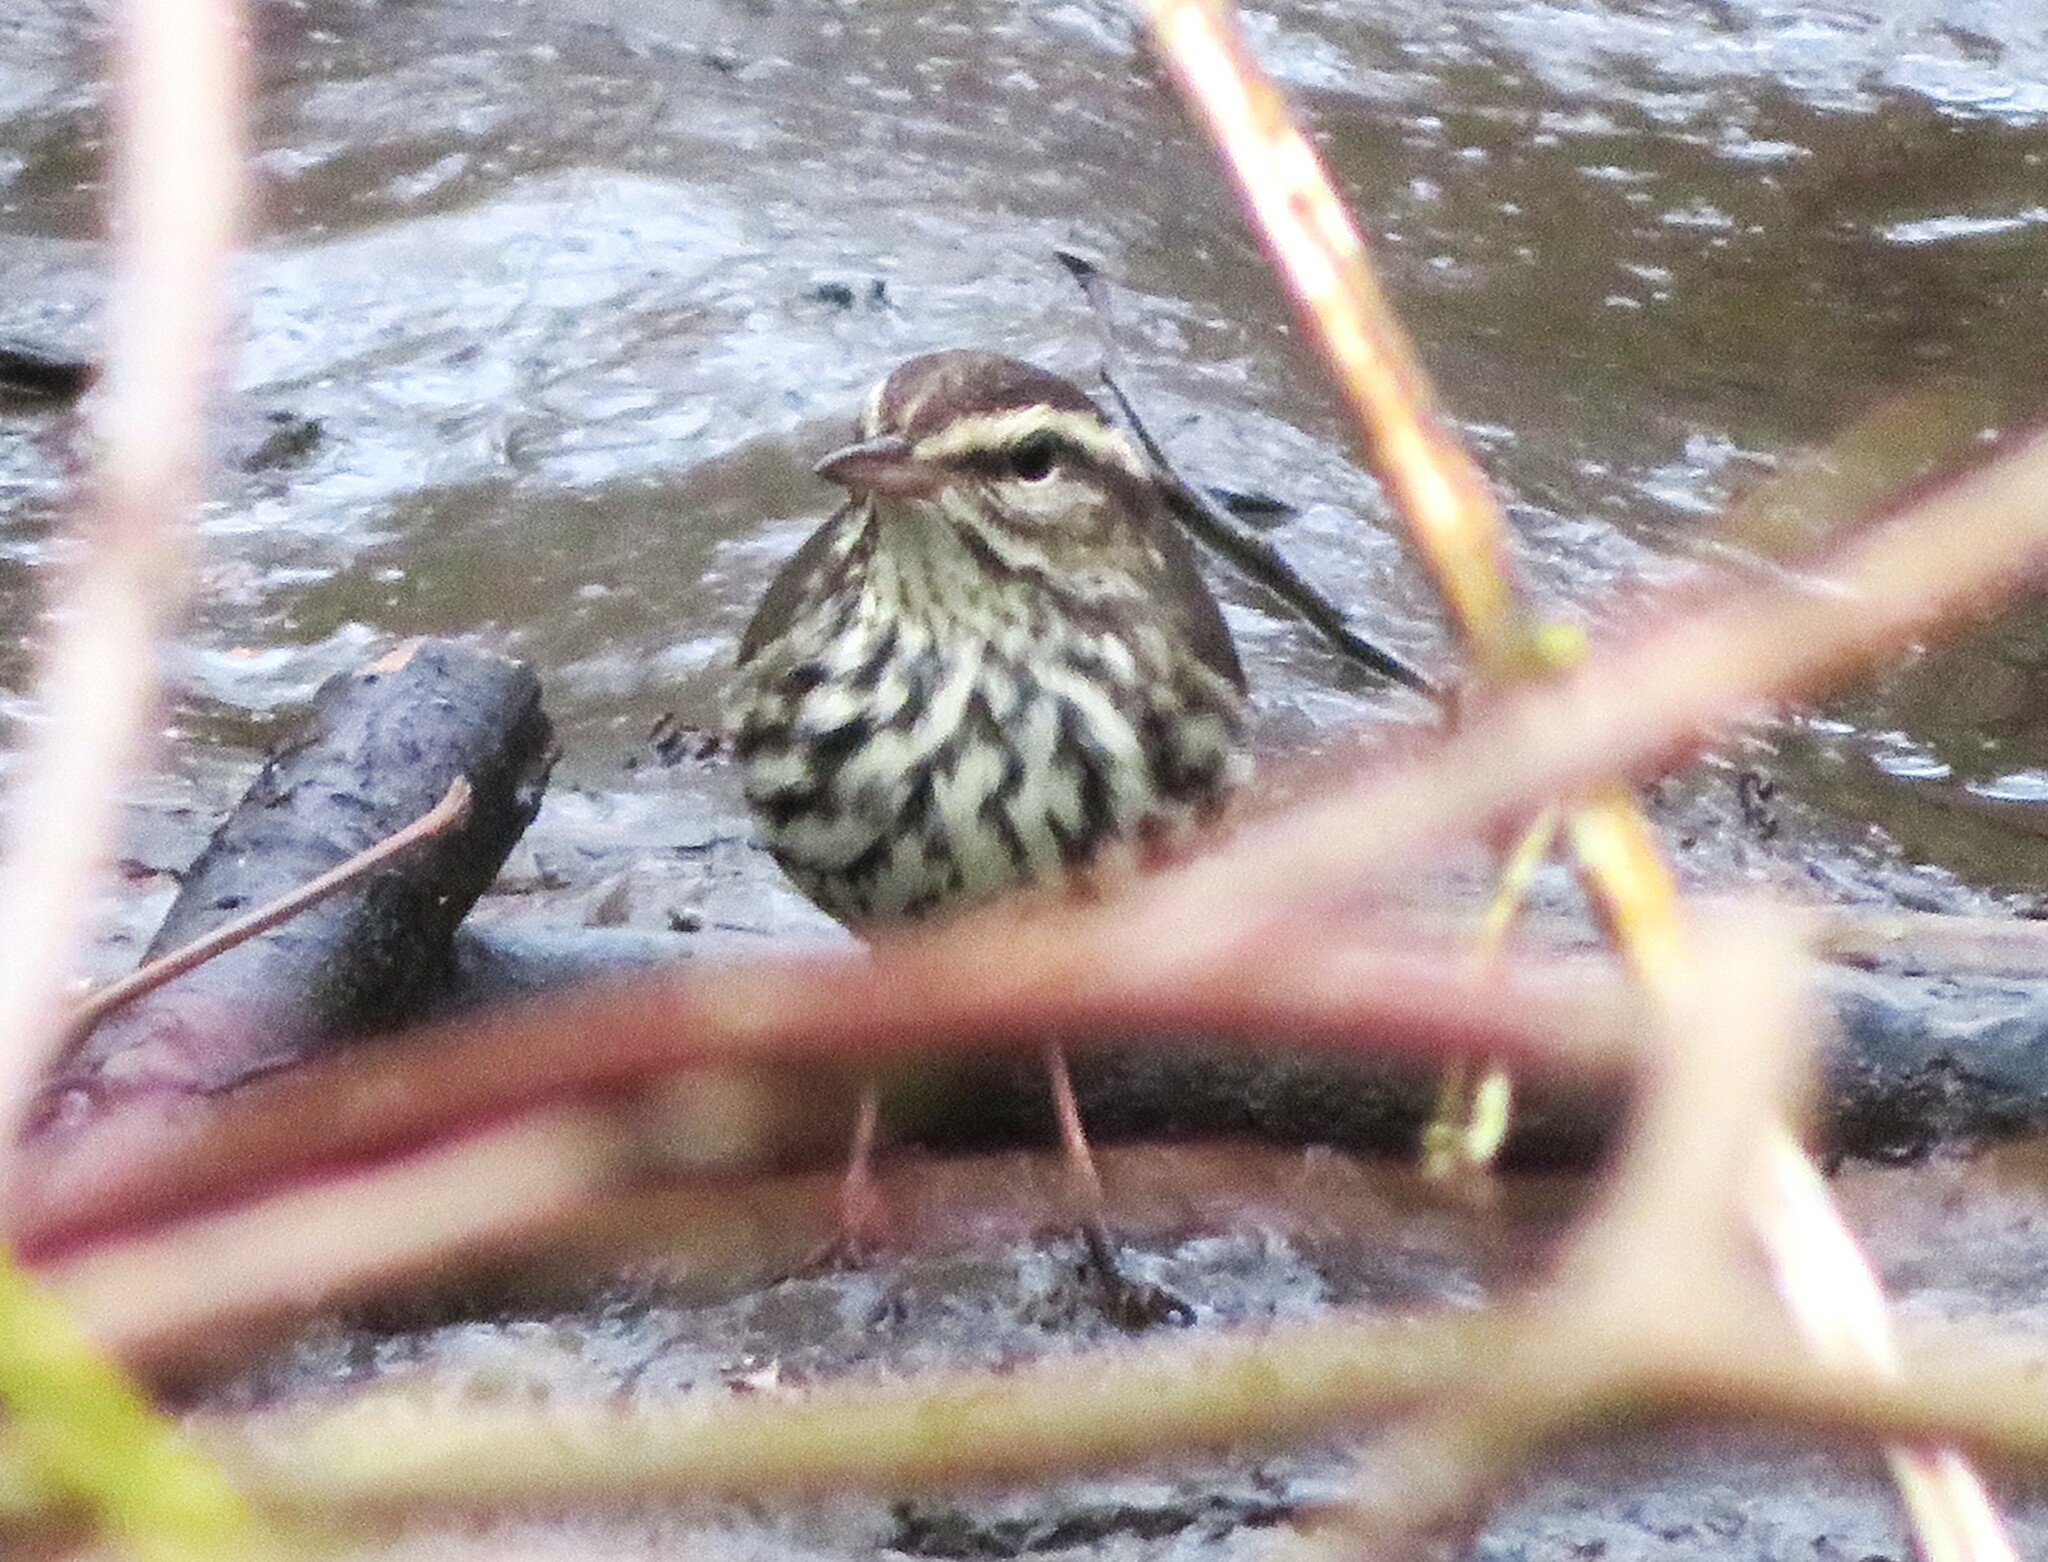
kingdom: Animalia
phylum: Chordata
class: Aves
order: Passeriformes
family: Parulidae
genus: Parkesia
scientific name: Parkesia noveboracensis
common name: Northern waterthrush
